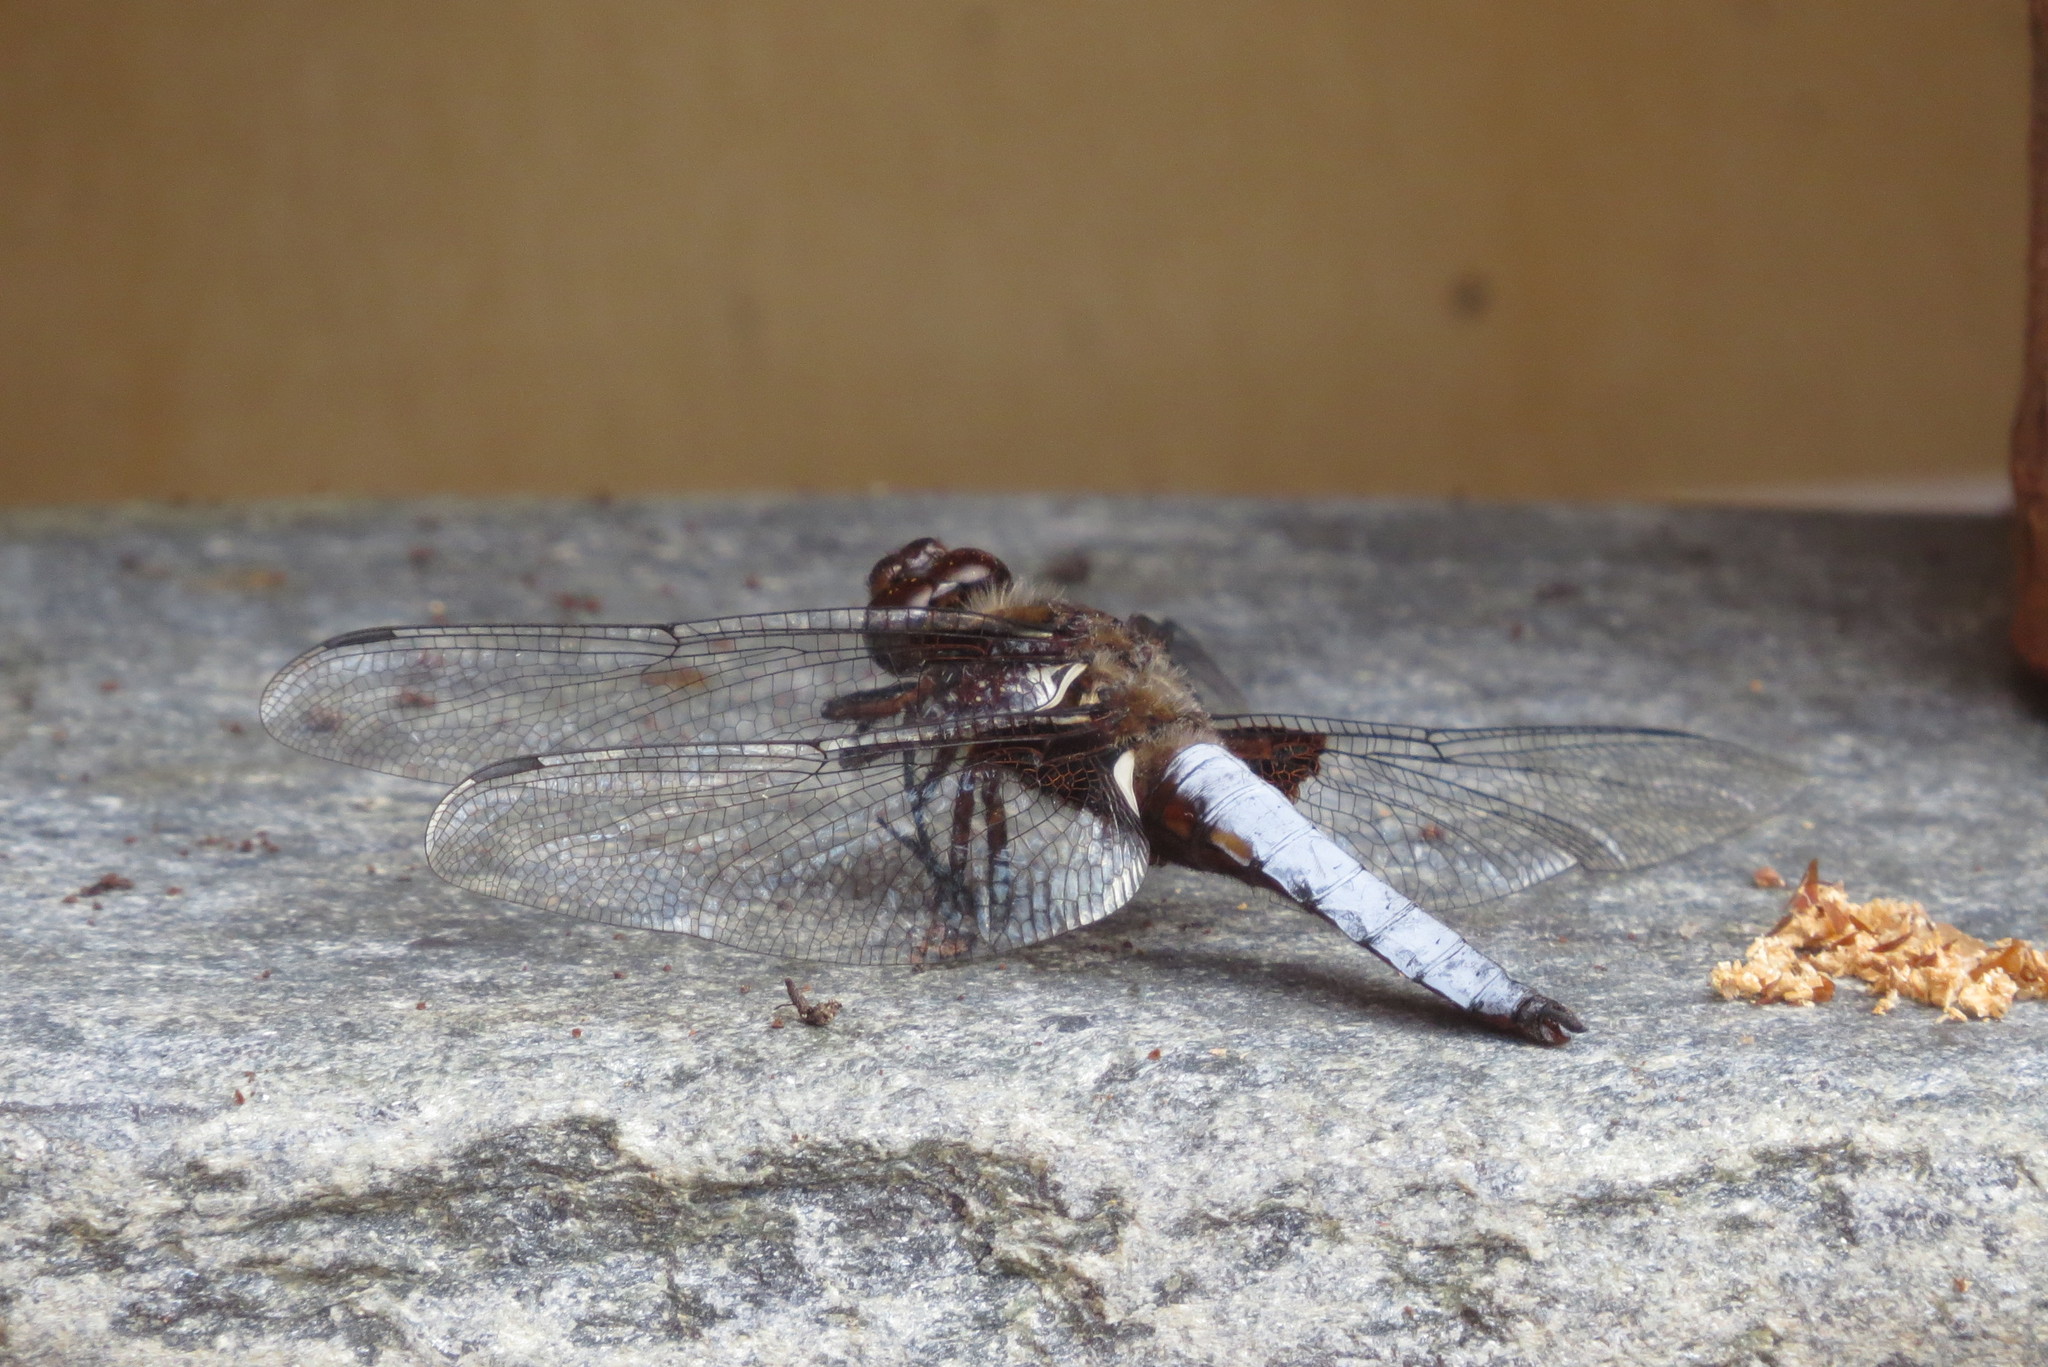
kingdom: Animalia
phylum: Arthropoda
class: Insecta
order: Odonata
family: Libellulidae
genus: Libellula
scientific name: Libellula depressa
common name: Broad-bodied chaser
